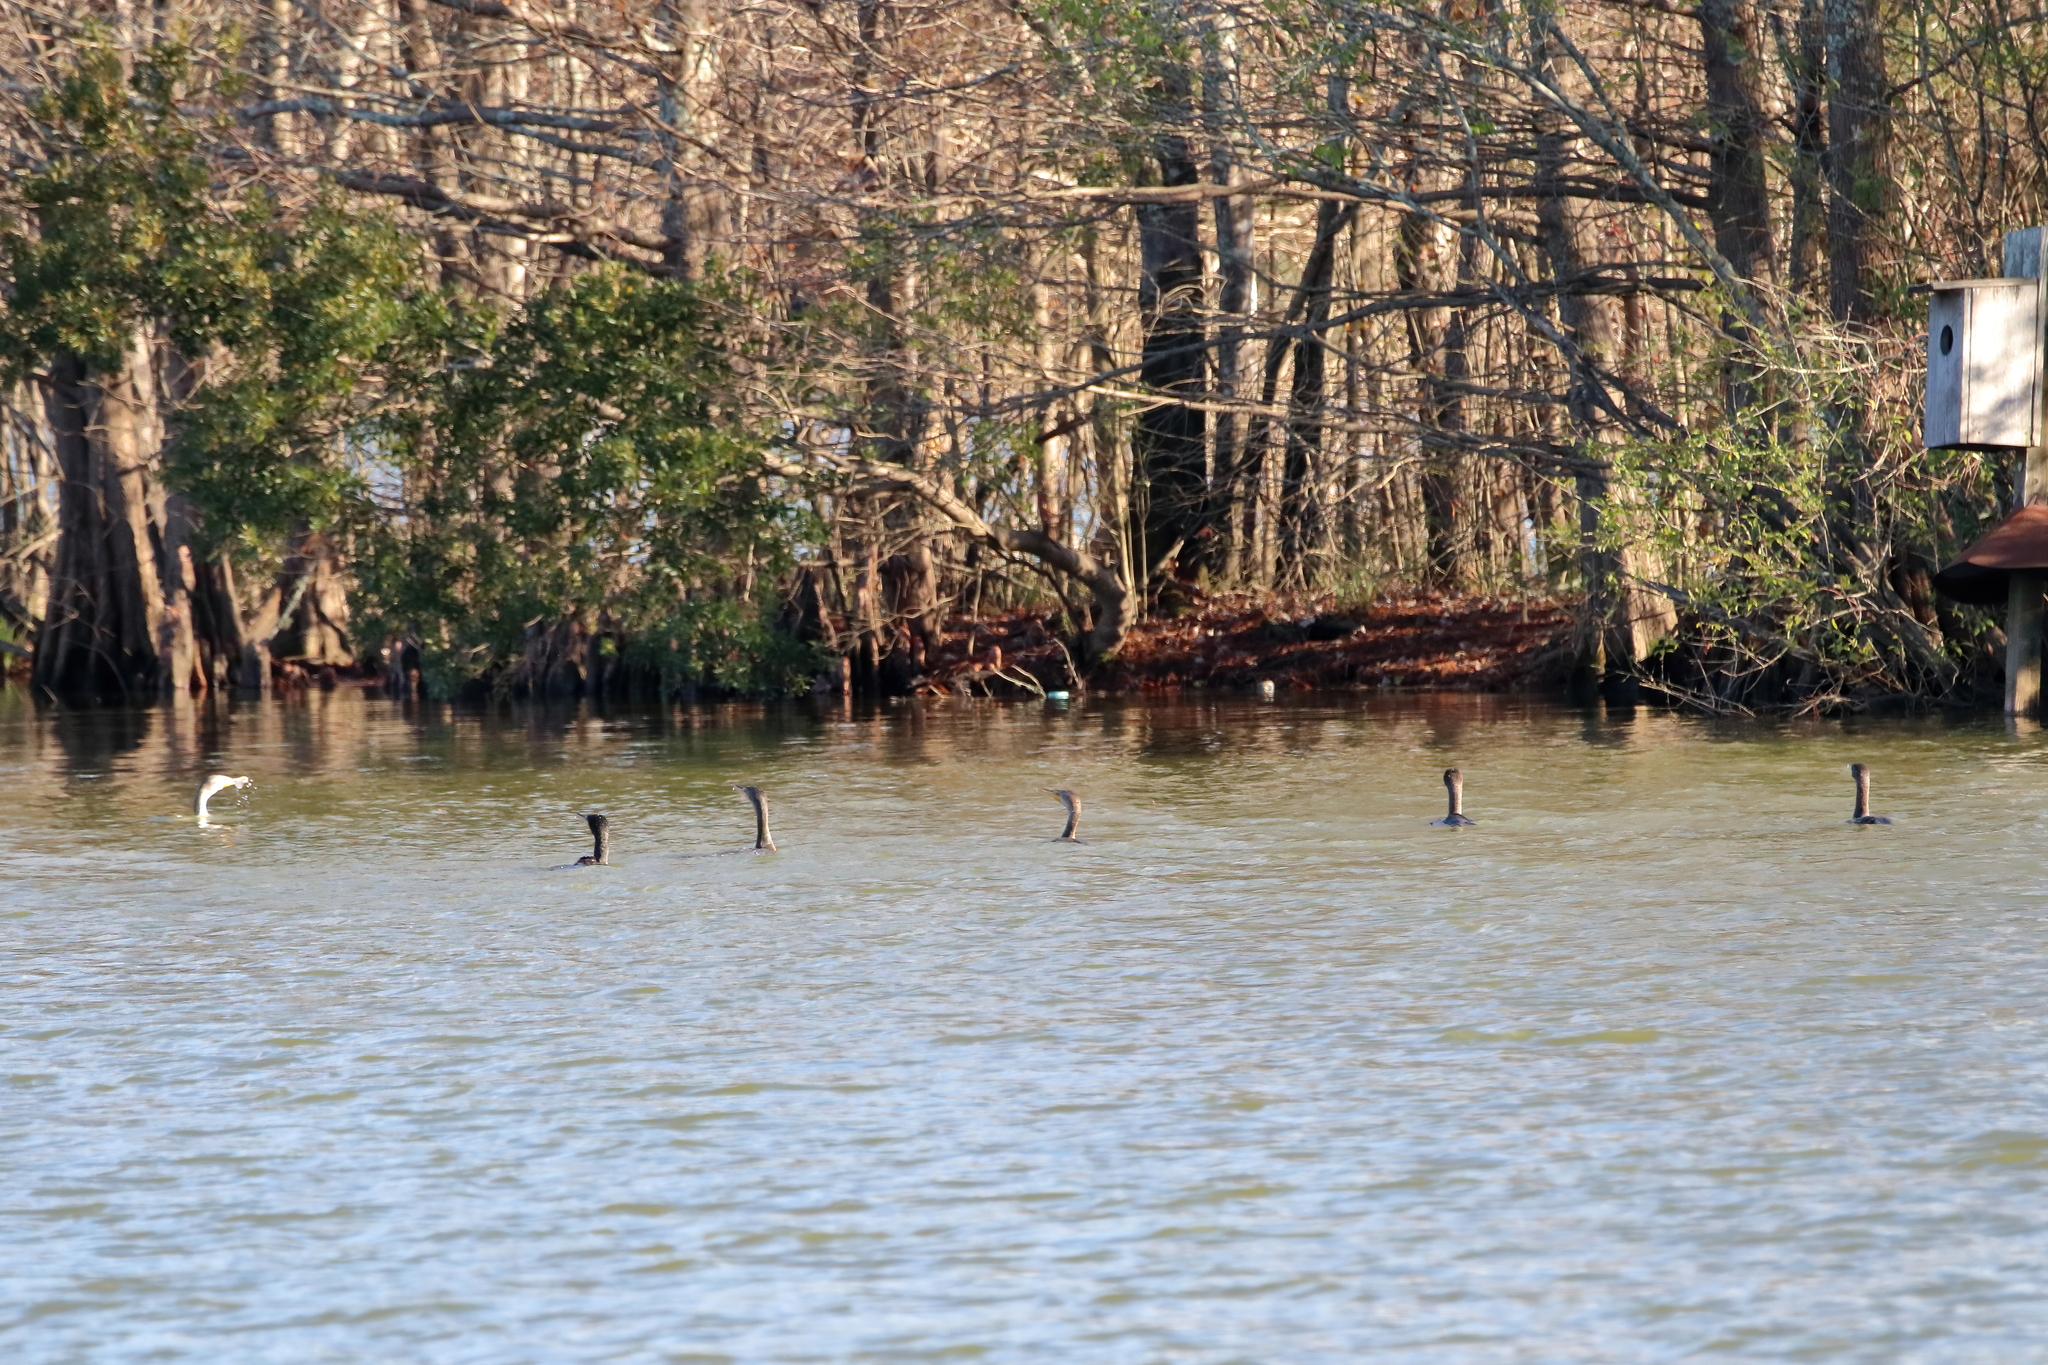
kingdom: Animalia
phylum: Chordata
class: Aves
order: Suliformes
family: Phalacrocoracidae
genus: Phalacrocorax
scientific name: Phalacrocorax auritus
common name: Double-crested cormorant
